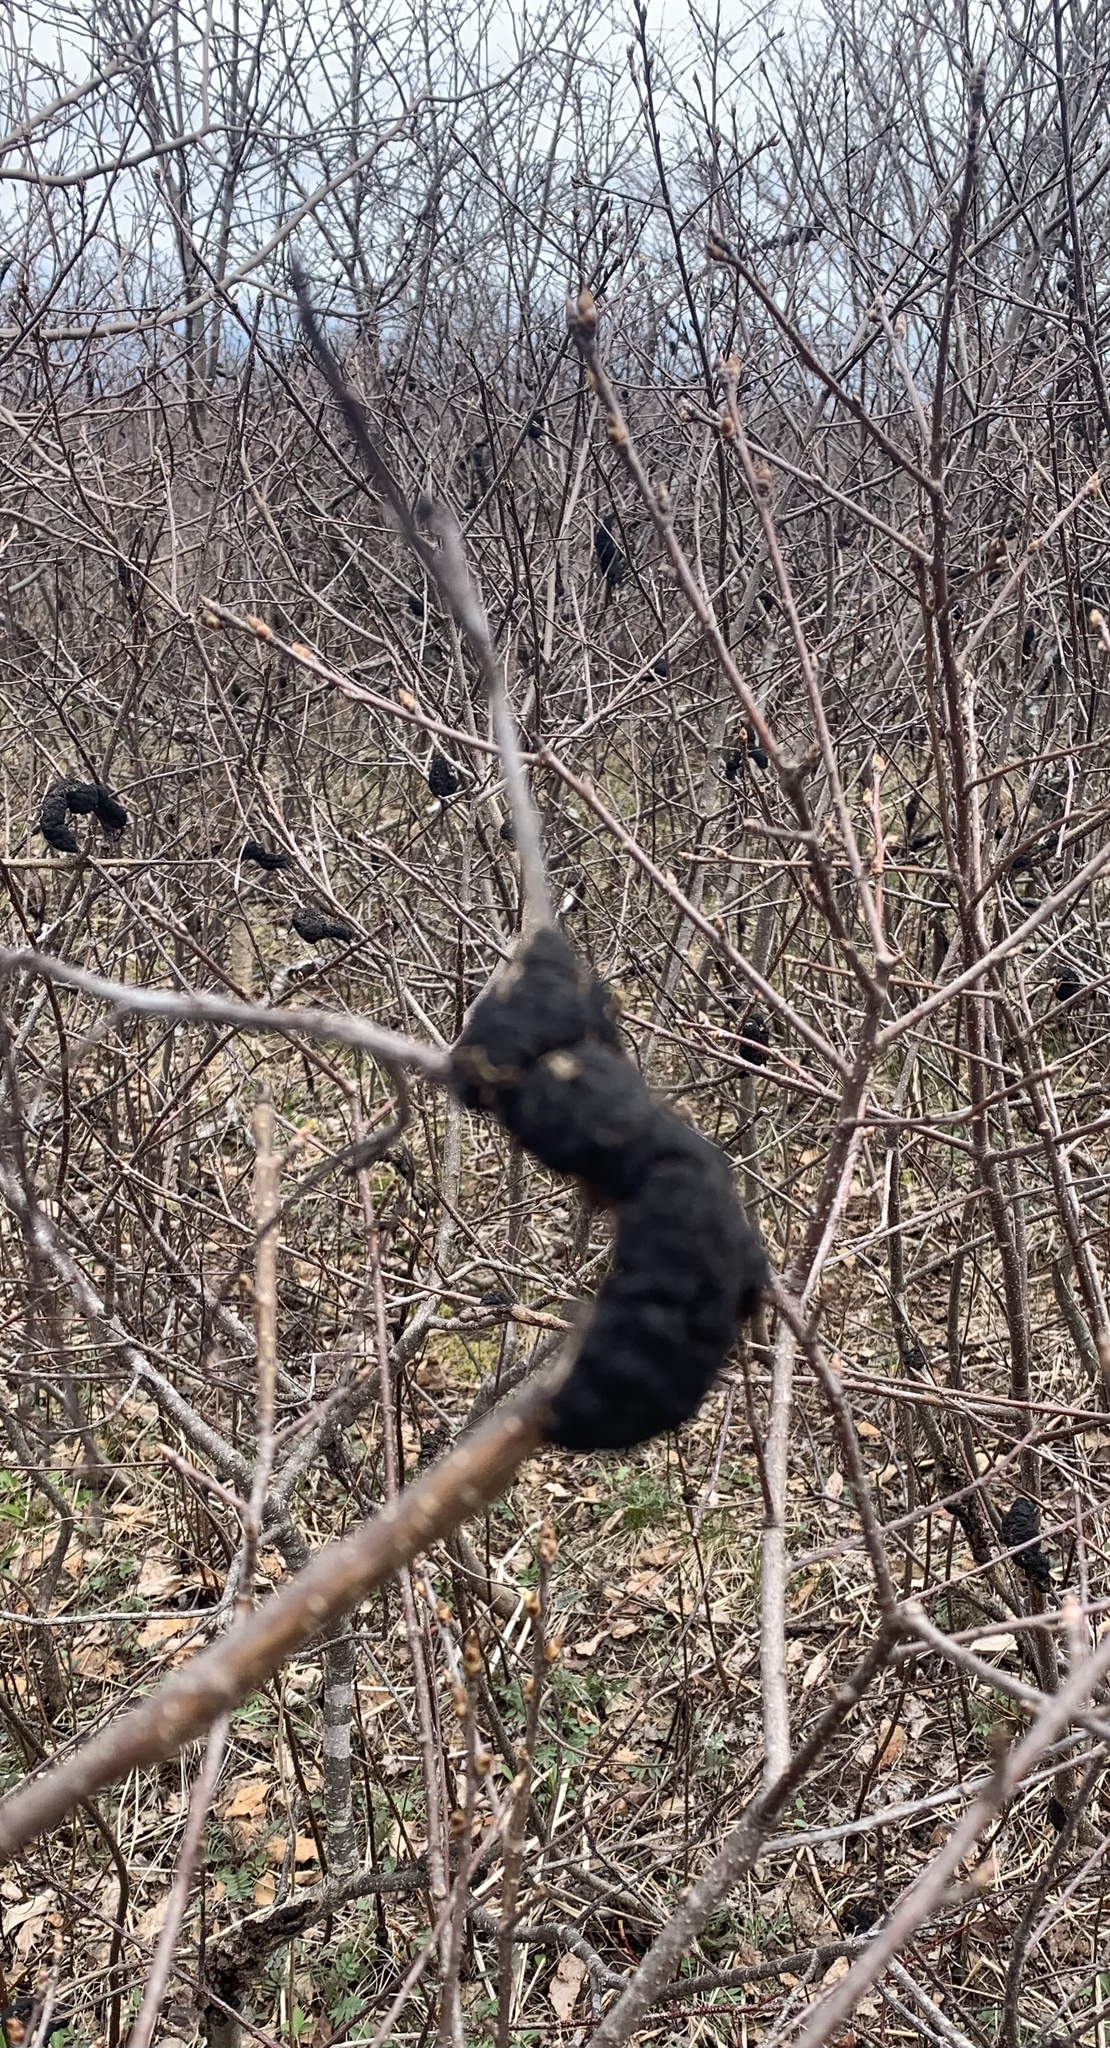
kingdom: Fungi
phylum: Ascomycota
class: Dothideomycetes
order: Venturiales
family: Venturiaceae
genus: Apiosporina
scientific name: Apiosporina morbosa
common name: Black knot
